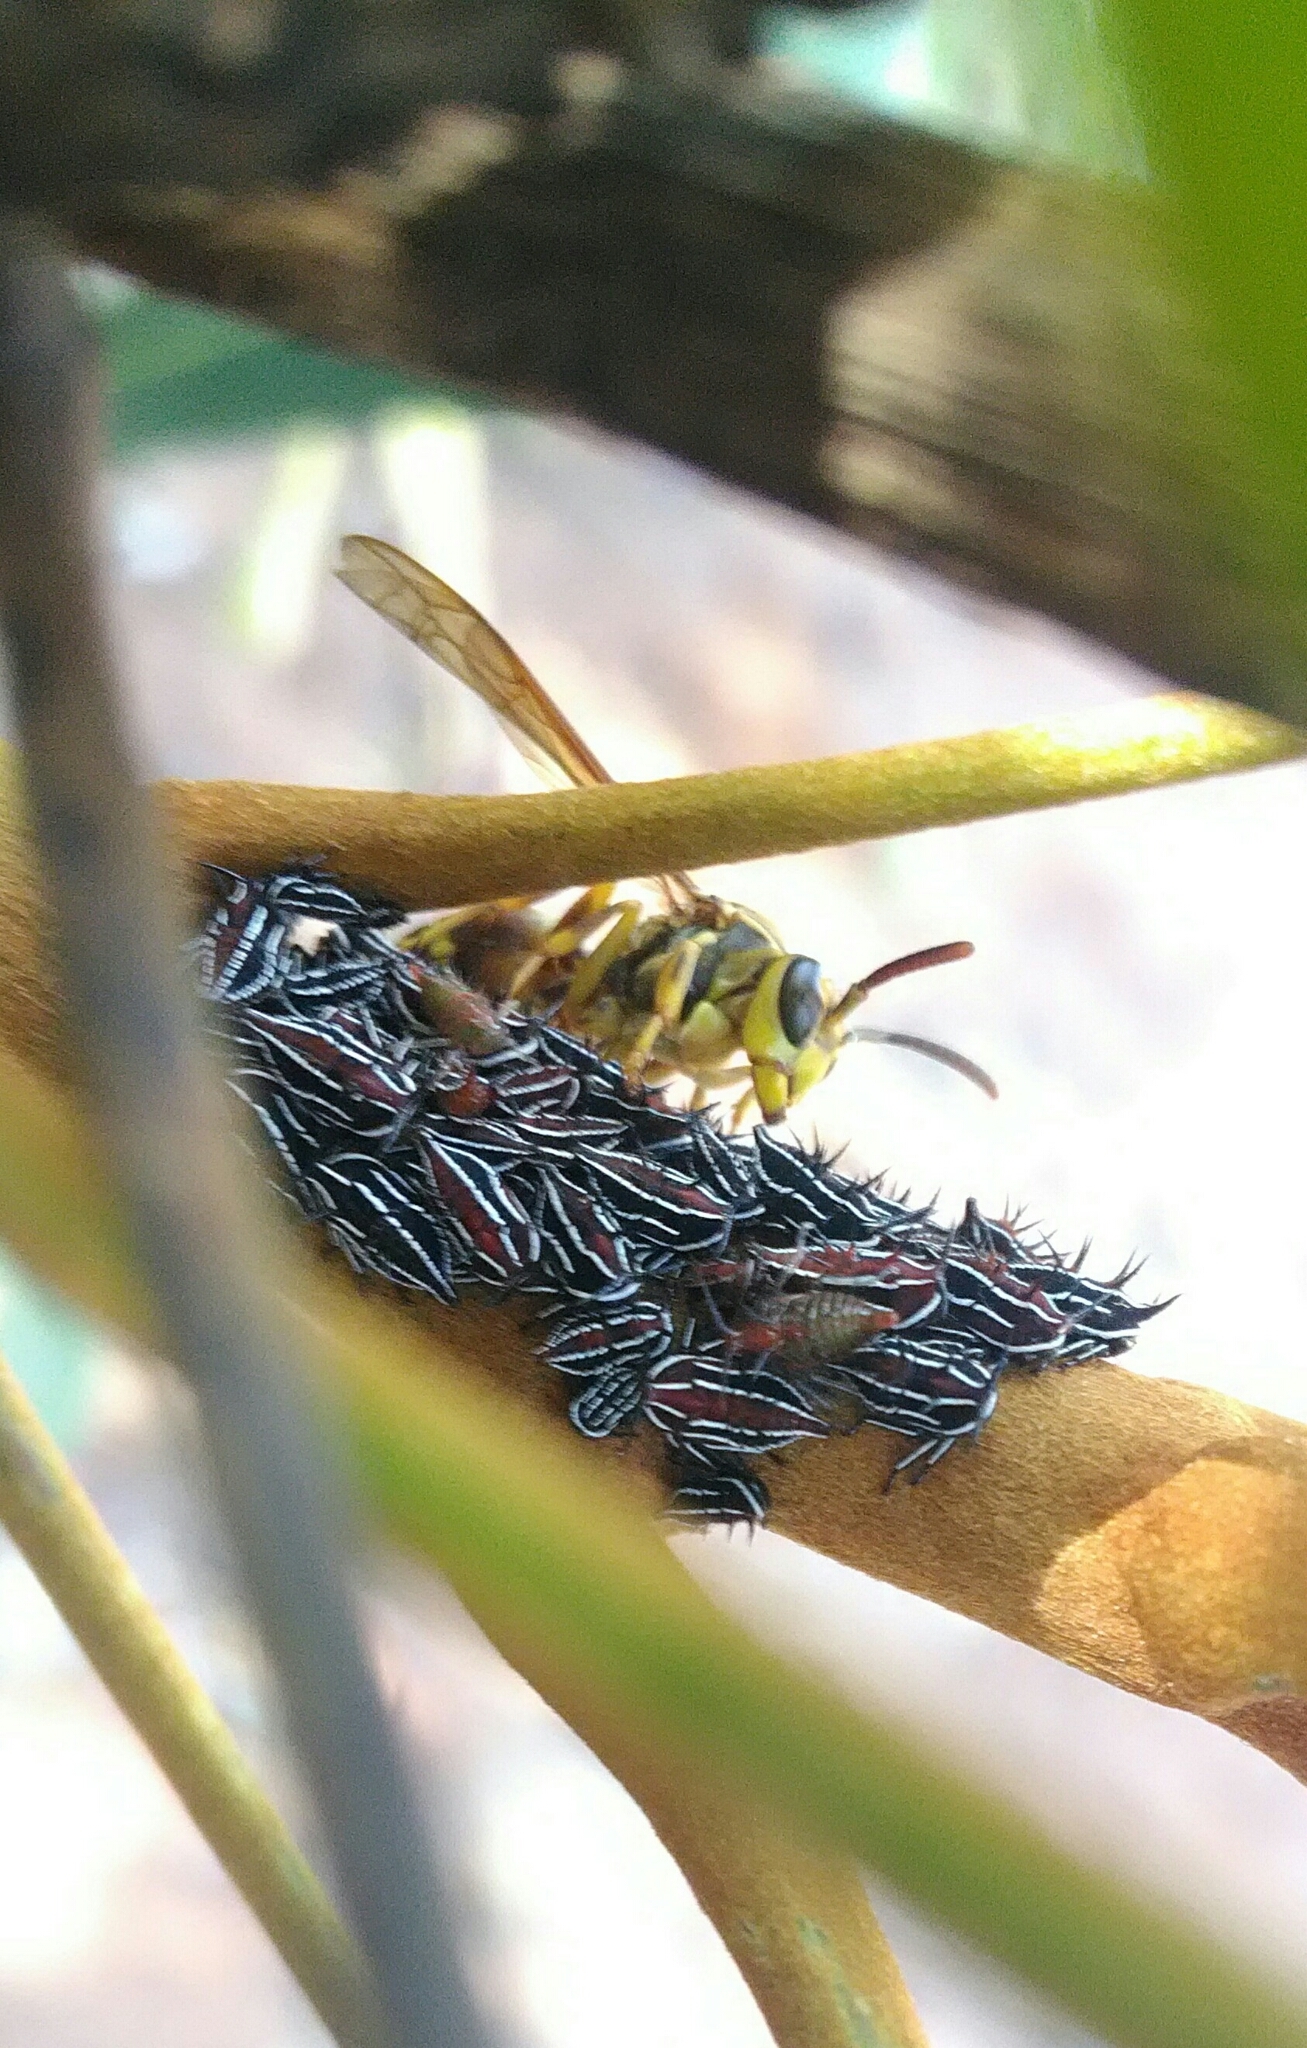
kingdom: Animalia
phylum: Arthropoda
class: Insecta
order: Hemiptera
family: Membracidae
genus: Guayaquila
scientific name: Guayaquila xiphias
